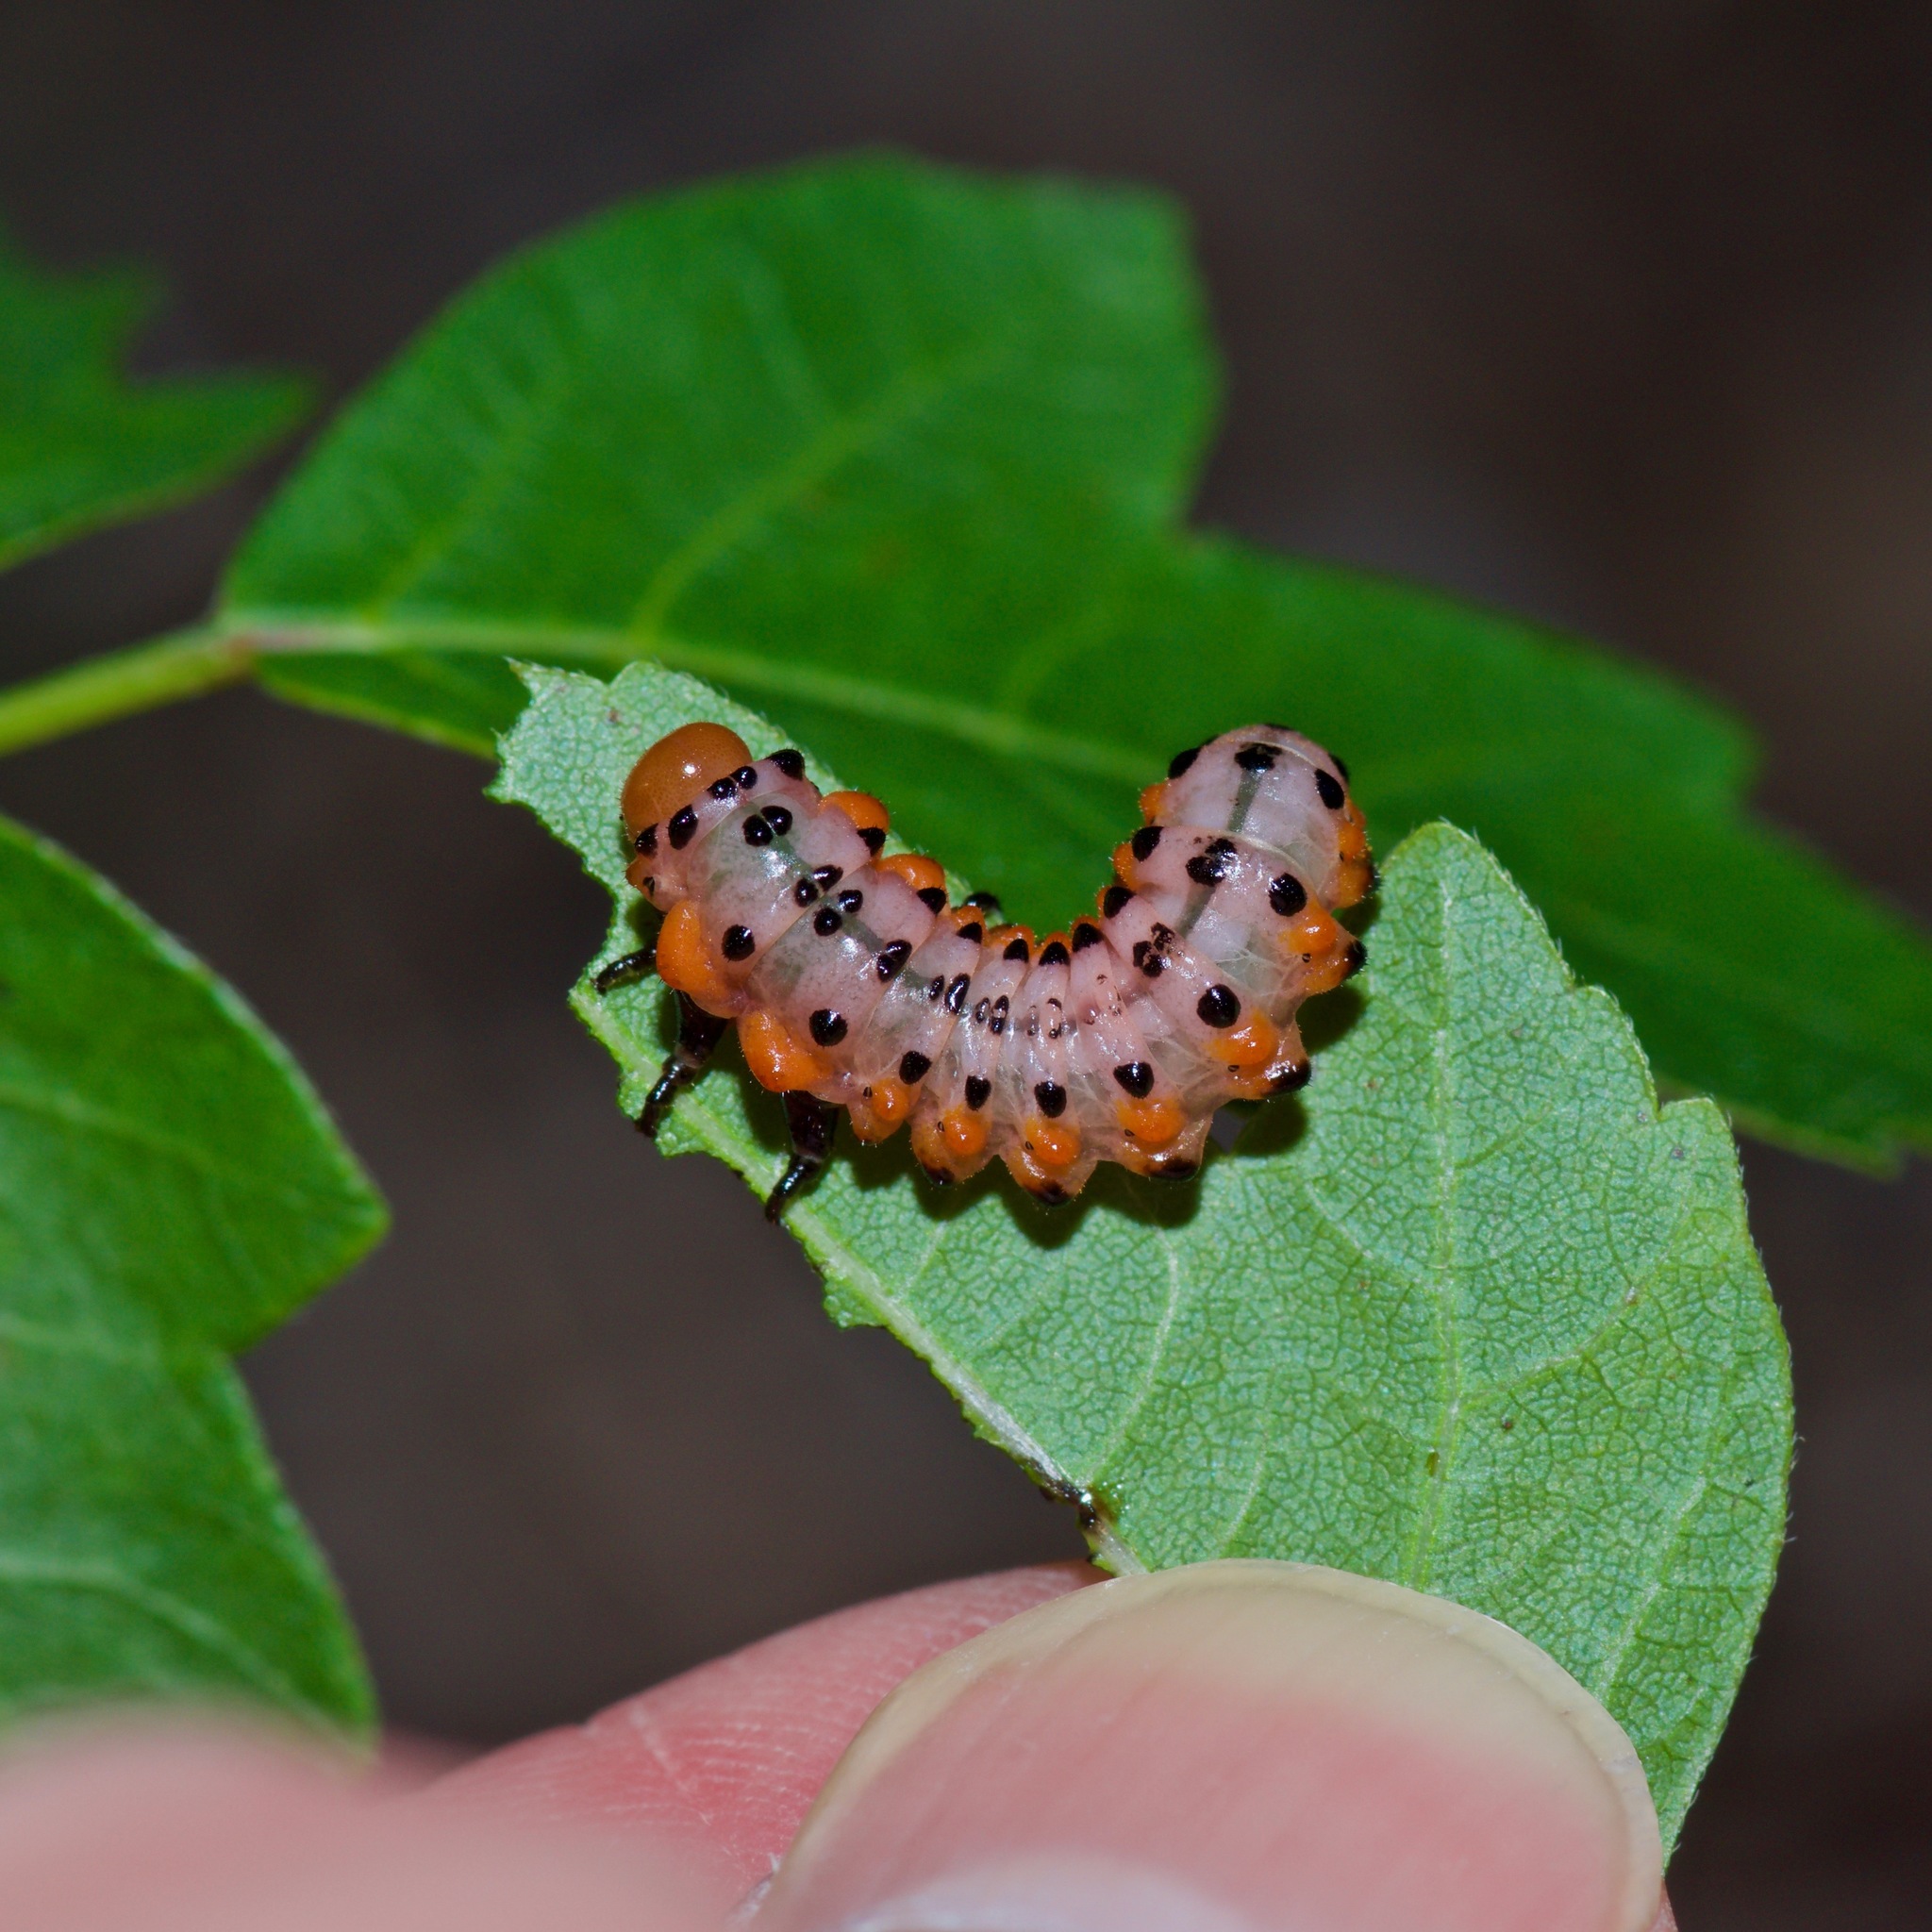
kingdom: Animalia
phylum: Arthropoda
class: Insecta
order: Hymenoptera
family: Argidae
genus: Arge
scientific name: Arge humeralis
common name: Poison ivy sawfly
